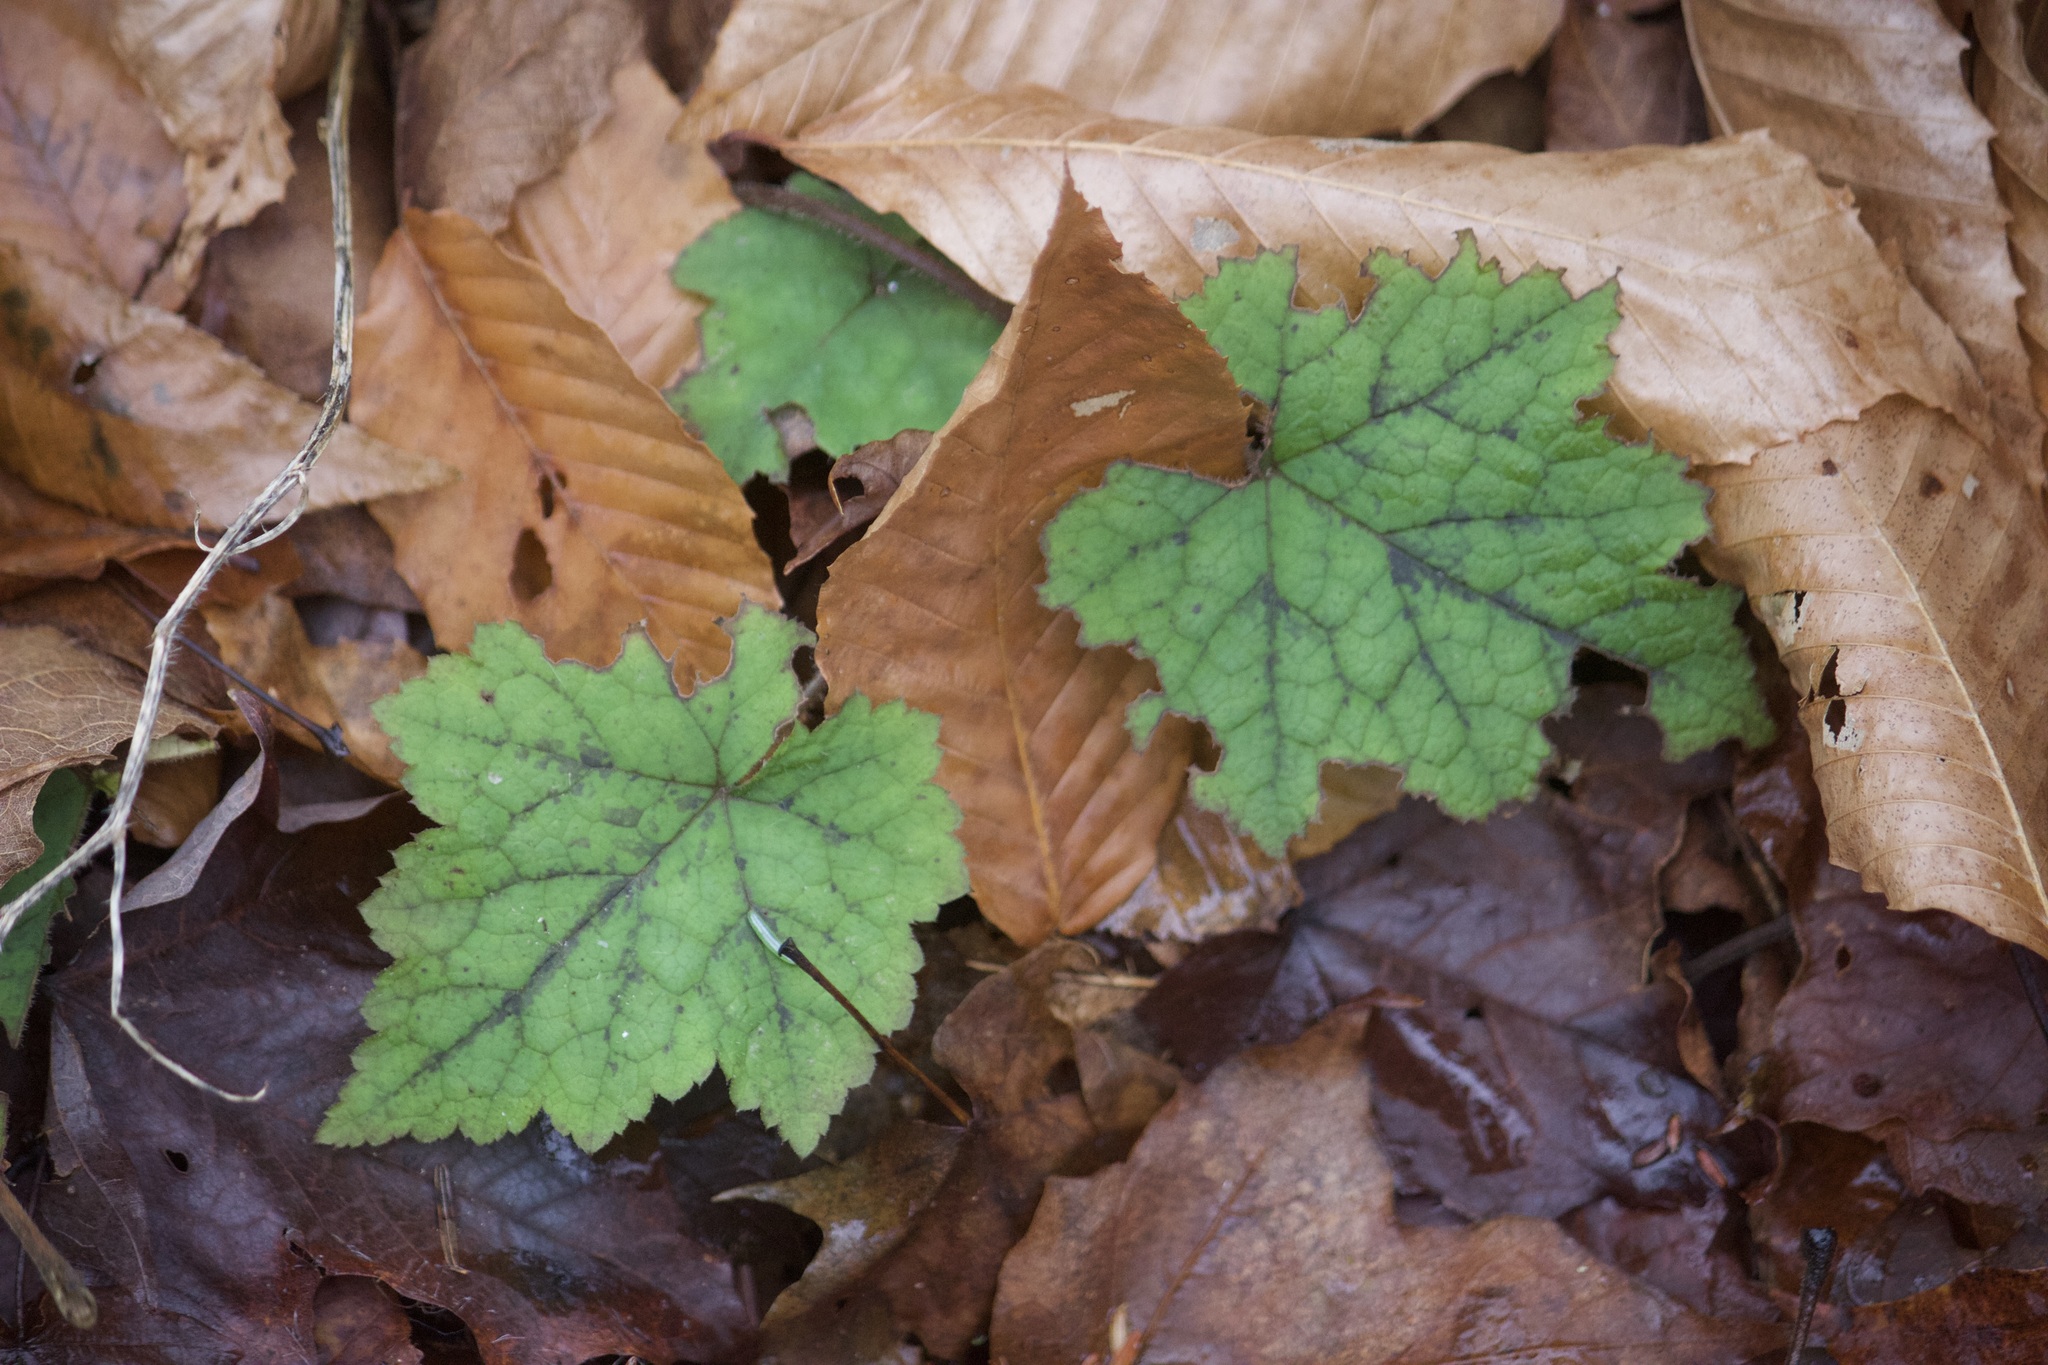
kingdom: Plantae
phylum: Tracheophyta
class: Magnoliopsida
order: Saxifragales
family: Saxifragaceae
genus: Tiarella
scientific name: Tiarella stolonifera
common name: Stoloniferous foamflower
